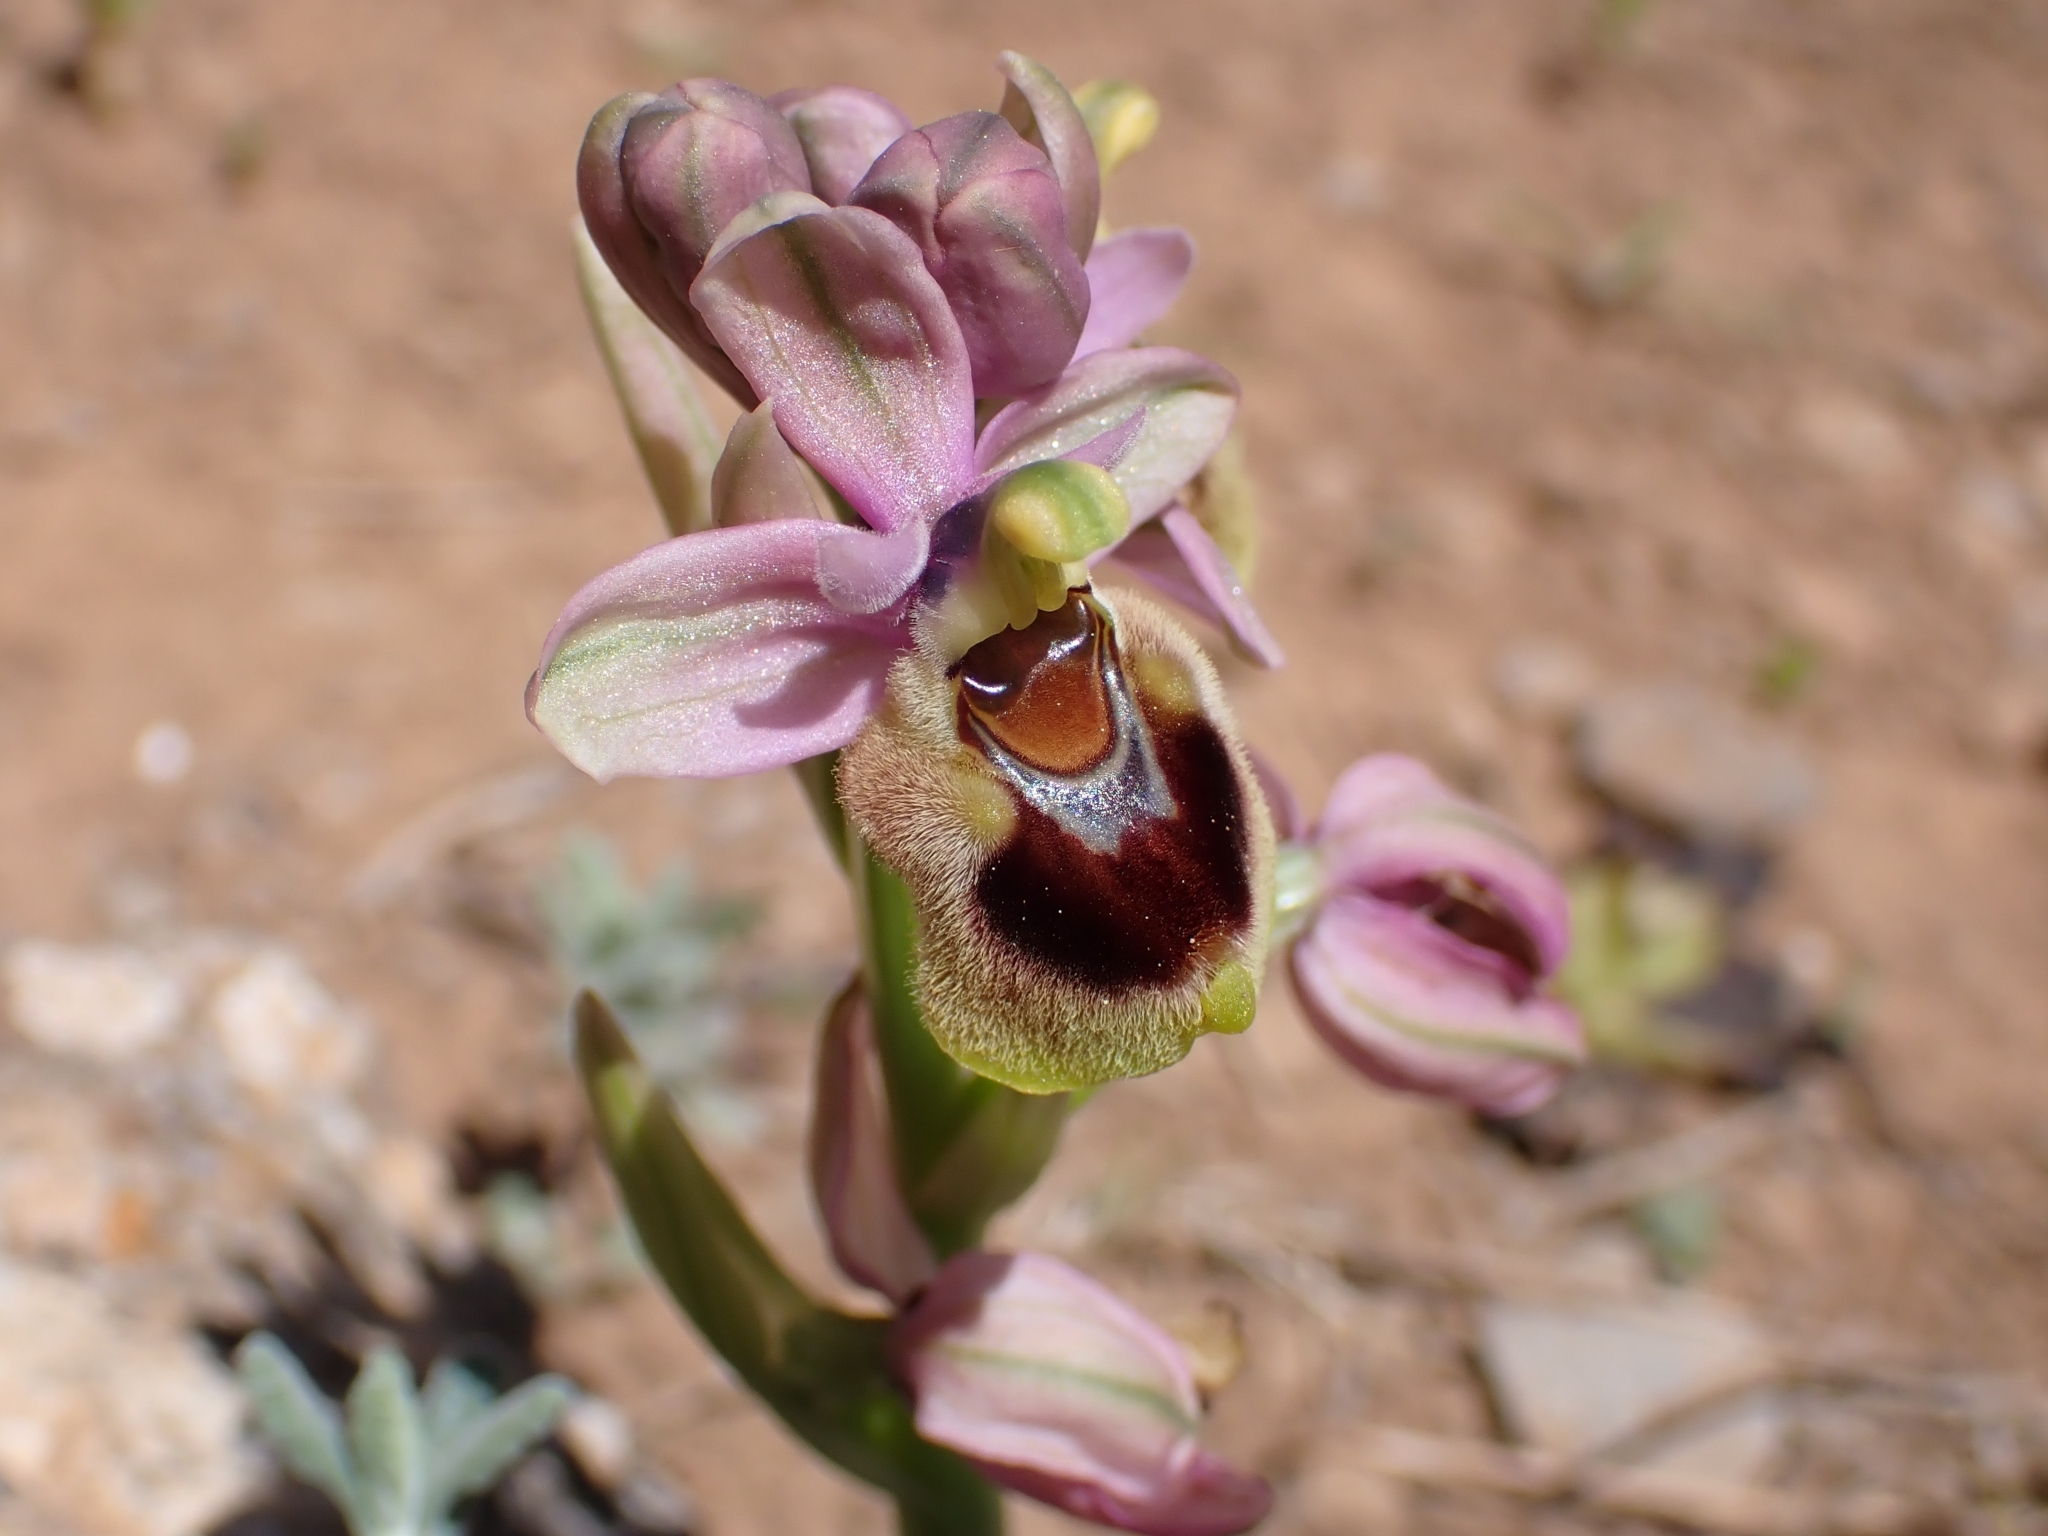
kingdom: Plantae
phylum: Tracheophyta
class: Liliopsida
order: Asparagales
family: Orchidaceae
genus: Ophrys
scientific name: Ophrys tenthredinifera
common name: Sawfly orchid
